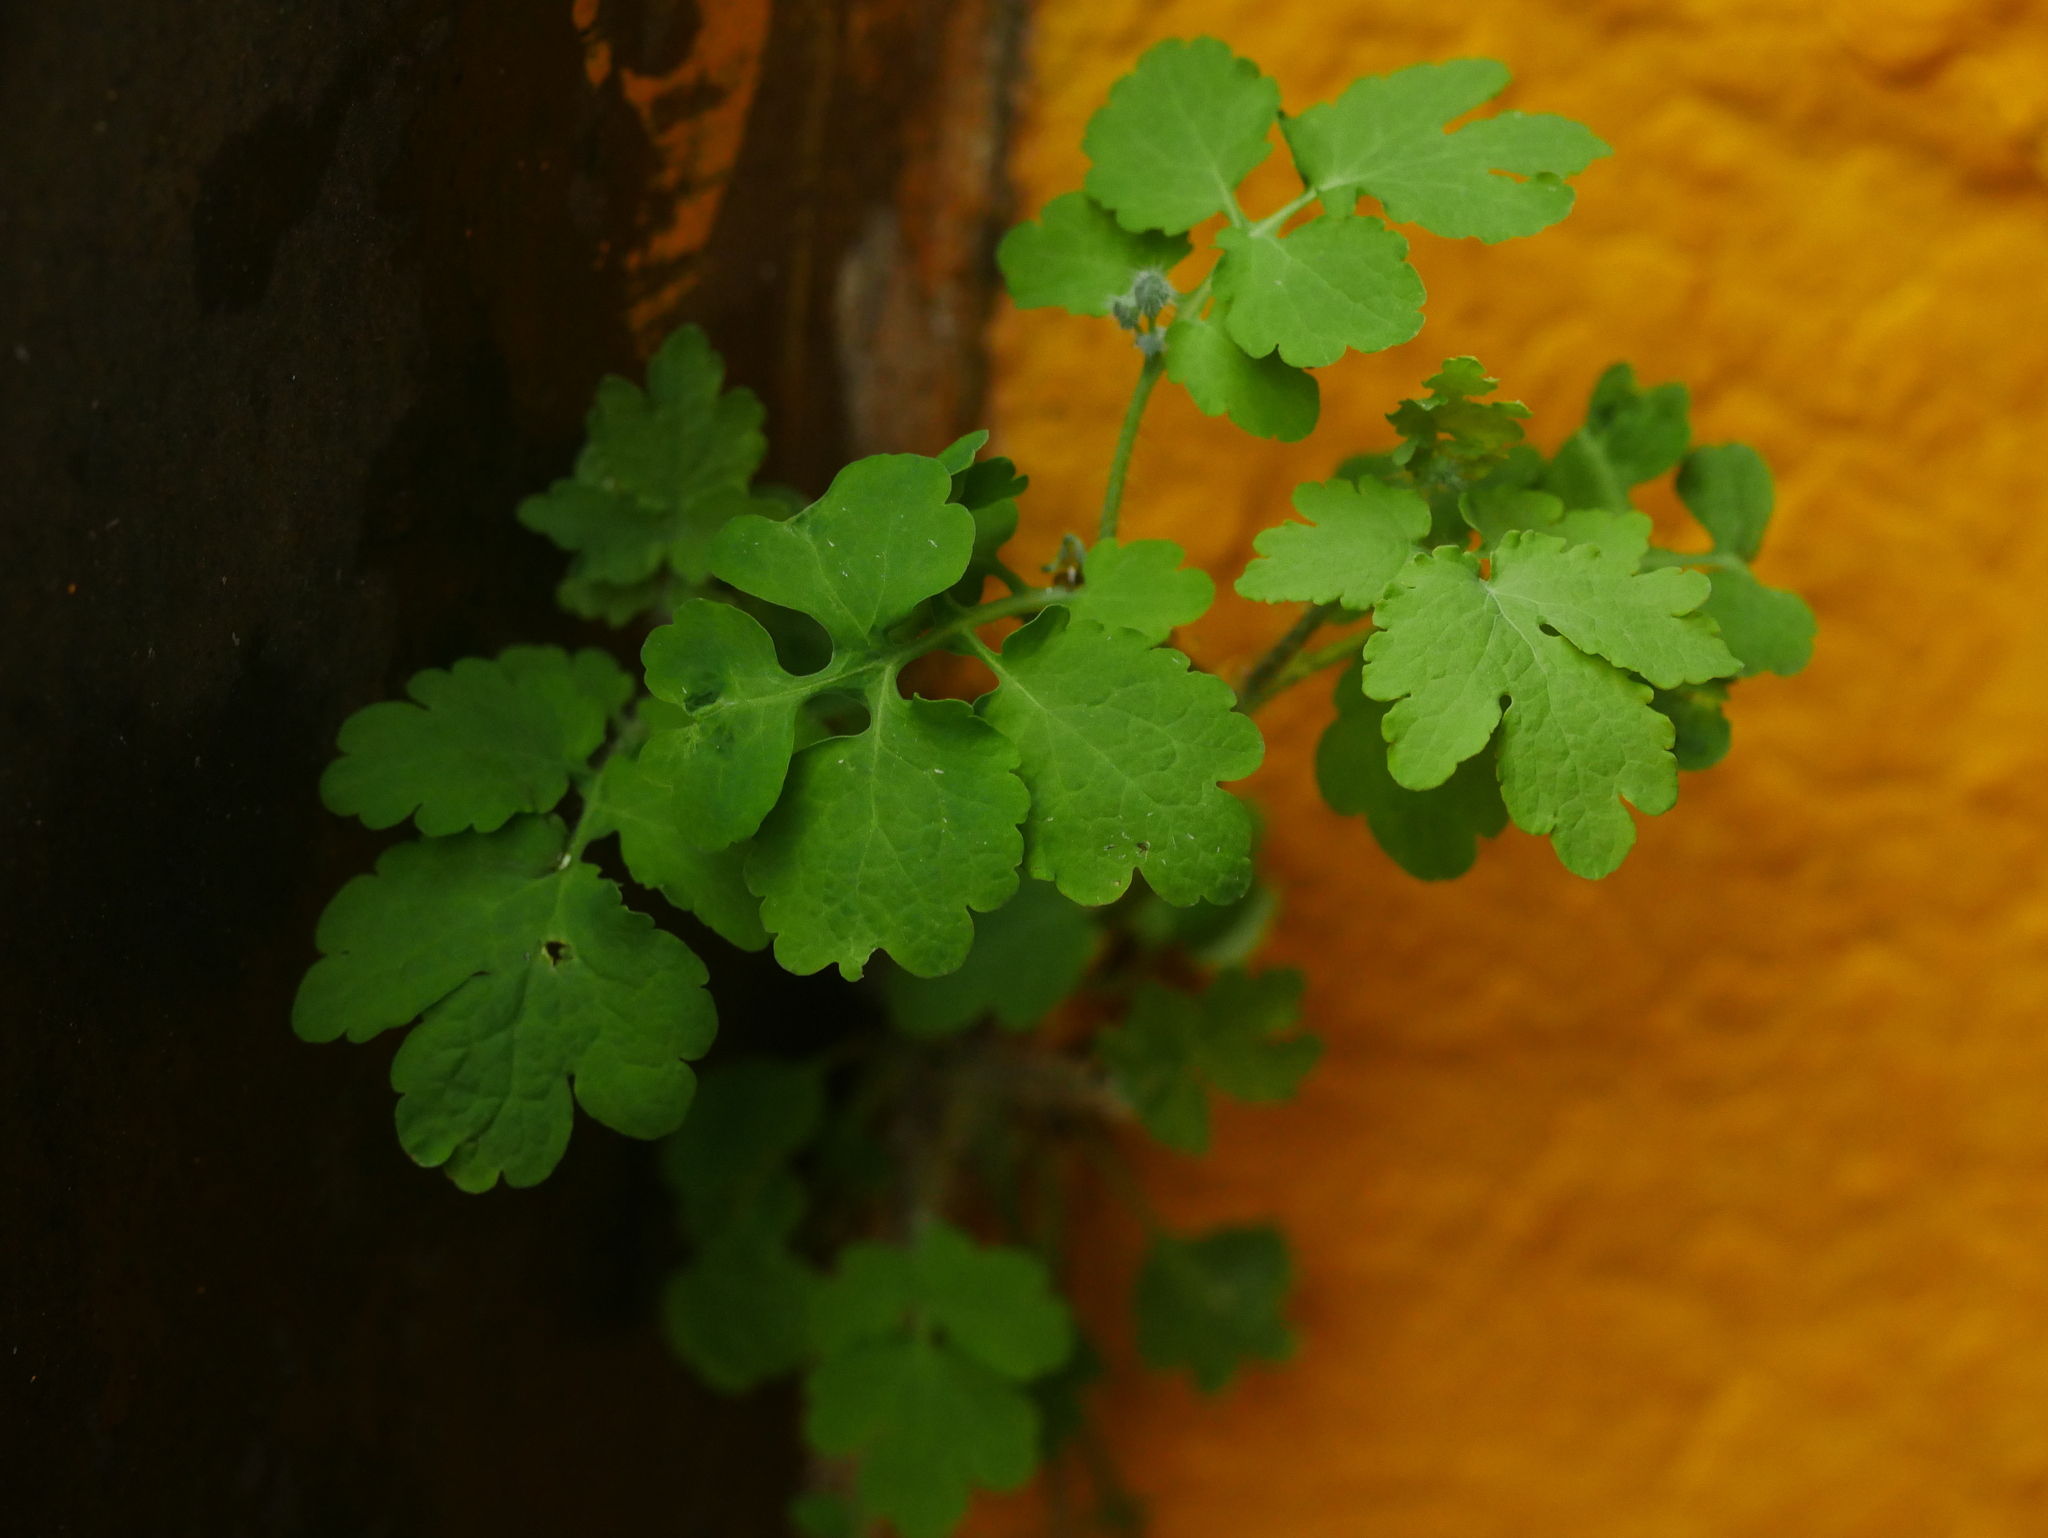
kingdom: Plantae
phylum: Tracheophyta
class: Magnoliopsida
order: Ranunculales
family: Papaveraceae
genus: Chelidonium
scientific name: Chelidonium majus
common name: Greater celandine
